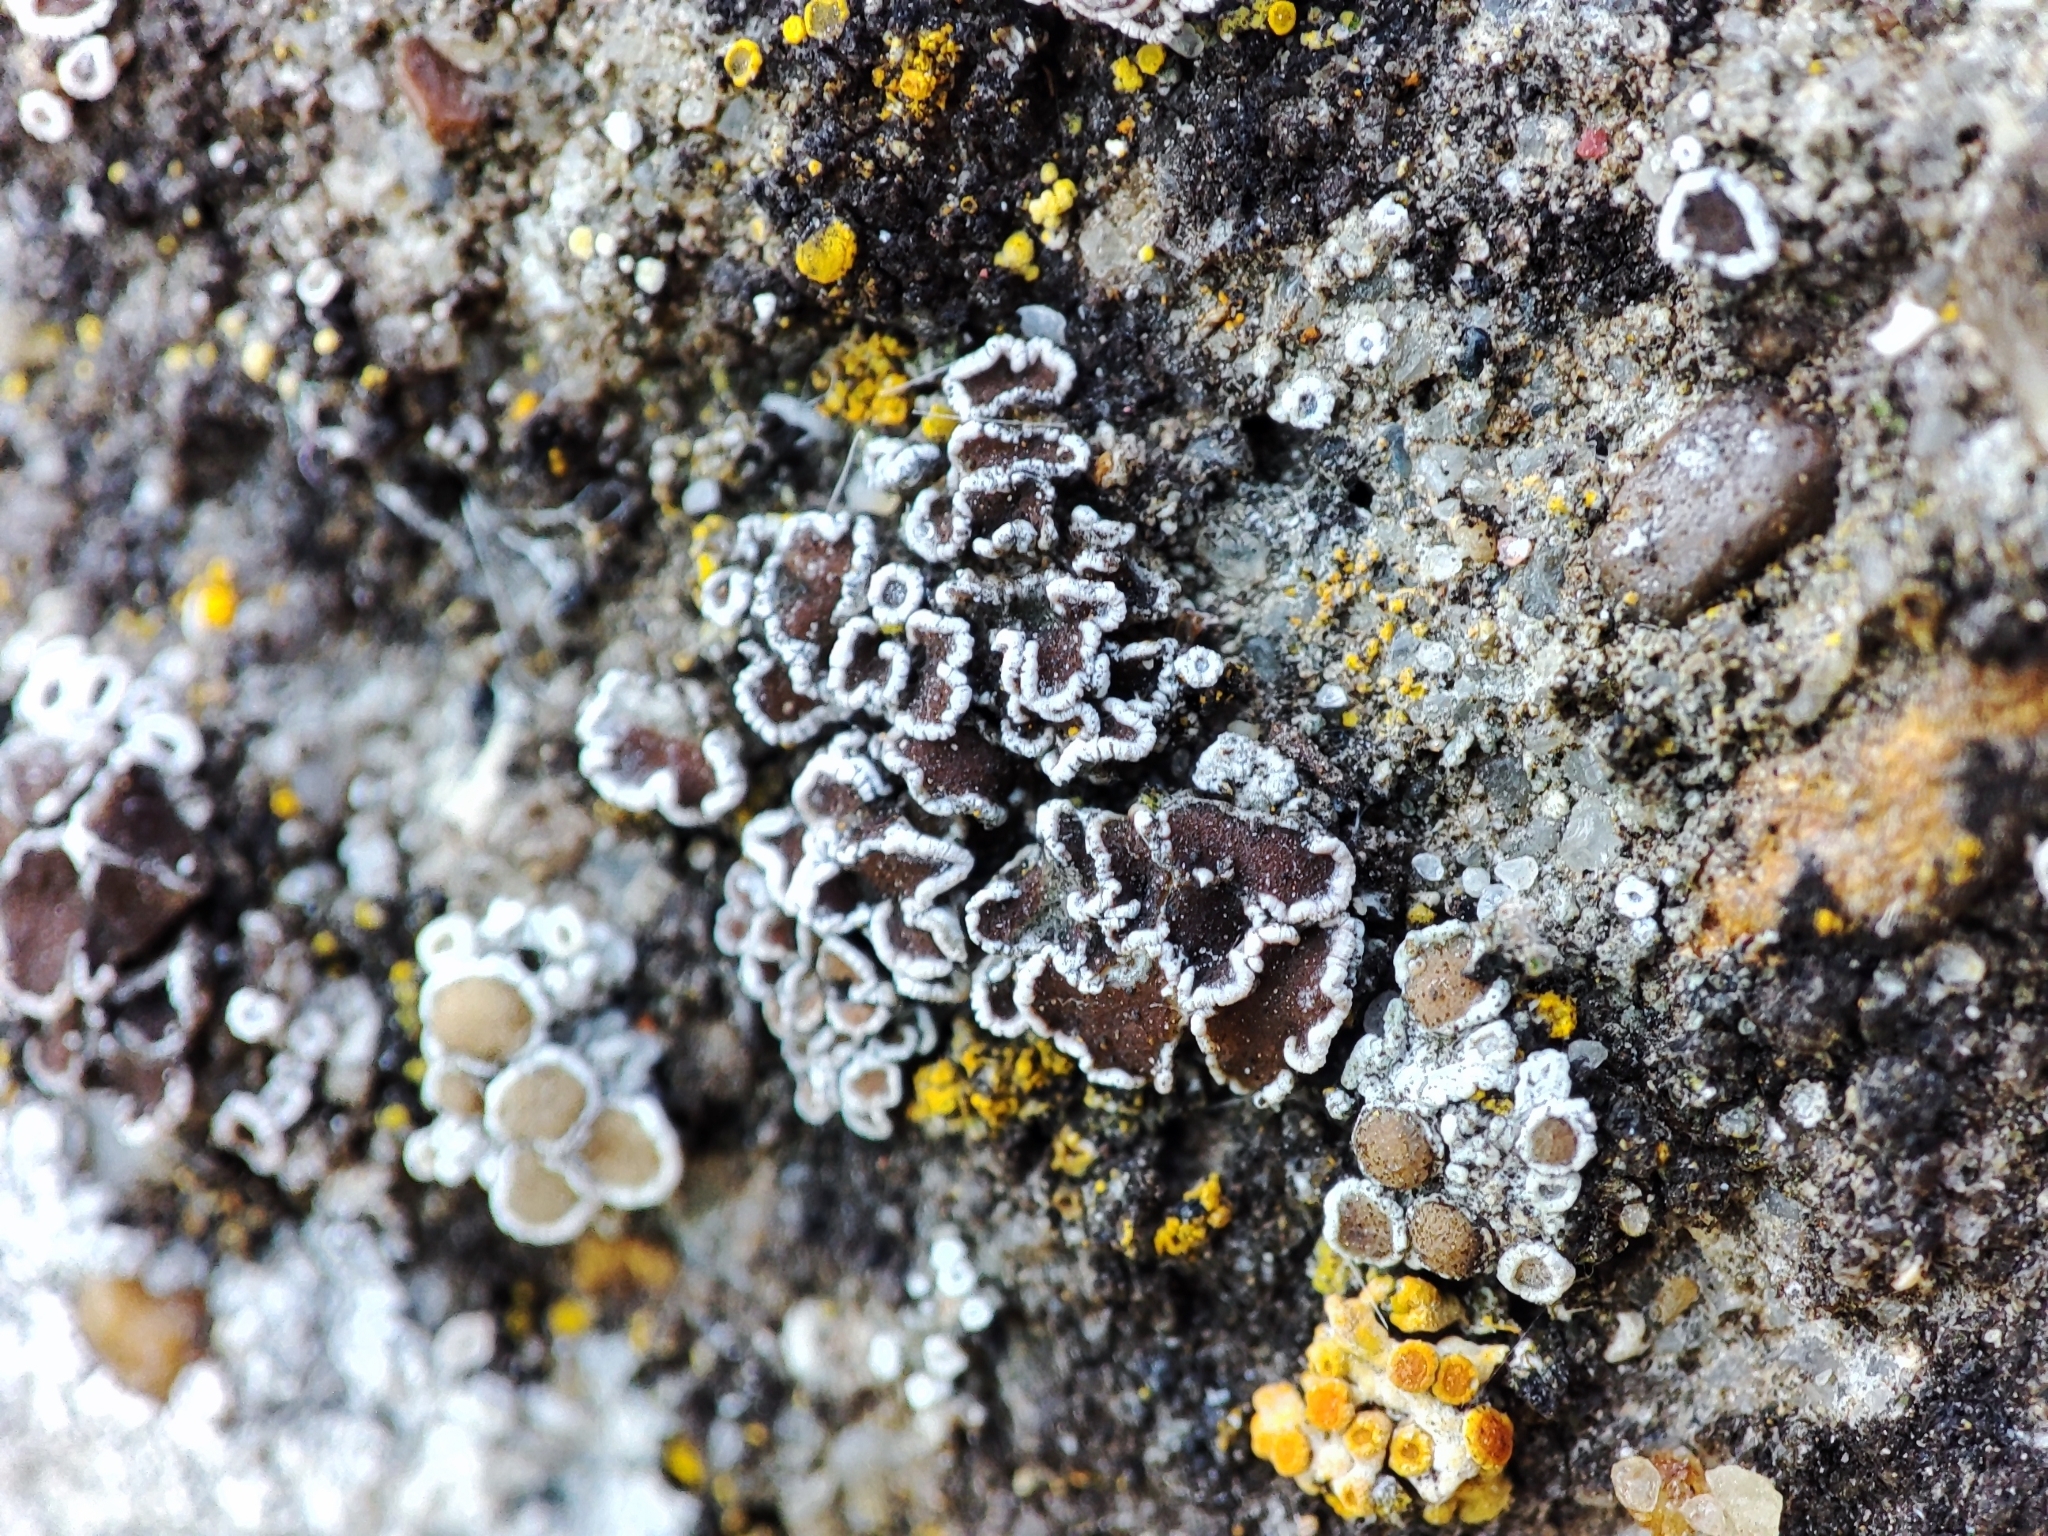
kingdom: Fungi
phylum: Ascomycota
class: Lecanoromycetes
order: Lecanorales
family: Lecanoraceae
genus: Polyozosia
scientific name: Polyozosia dispersa
